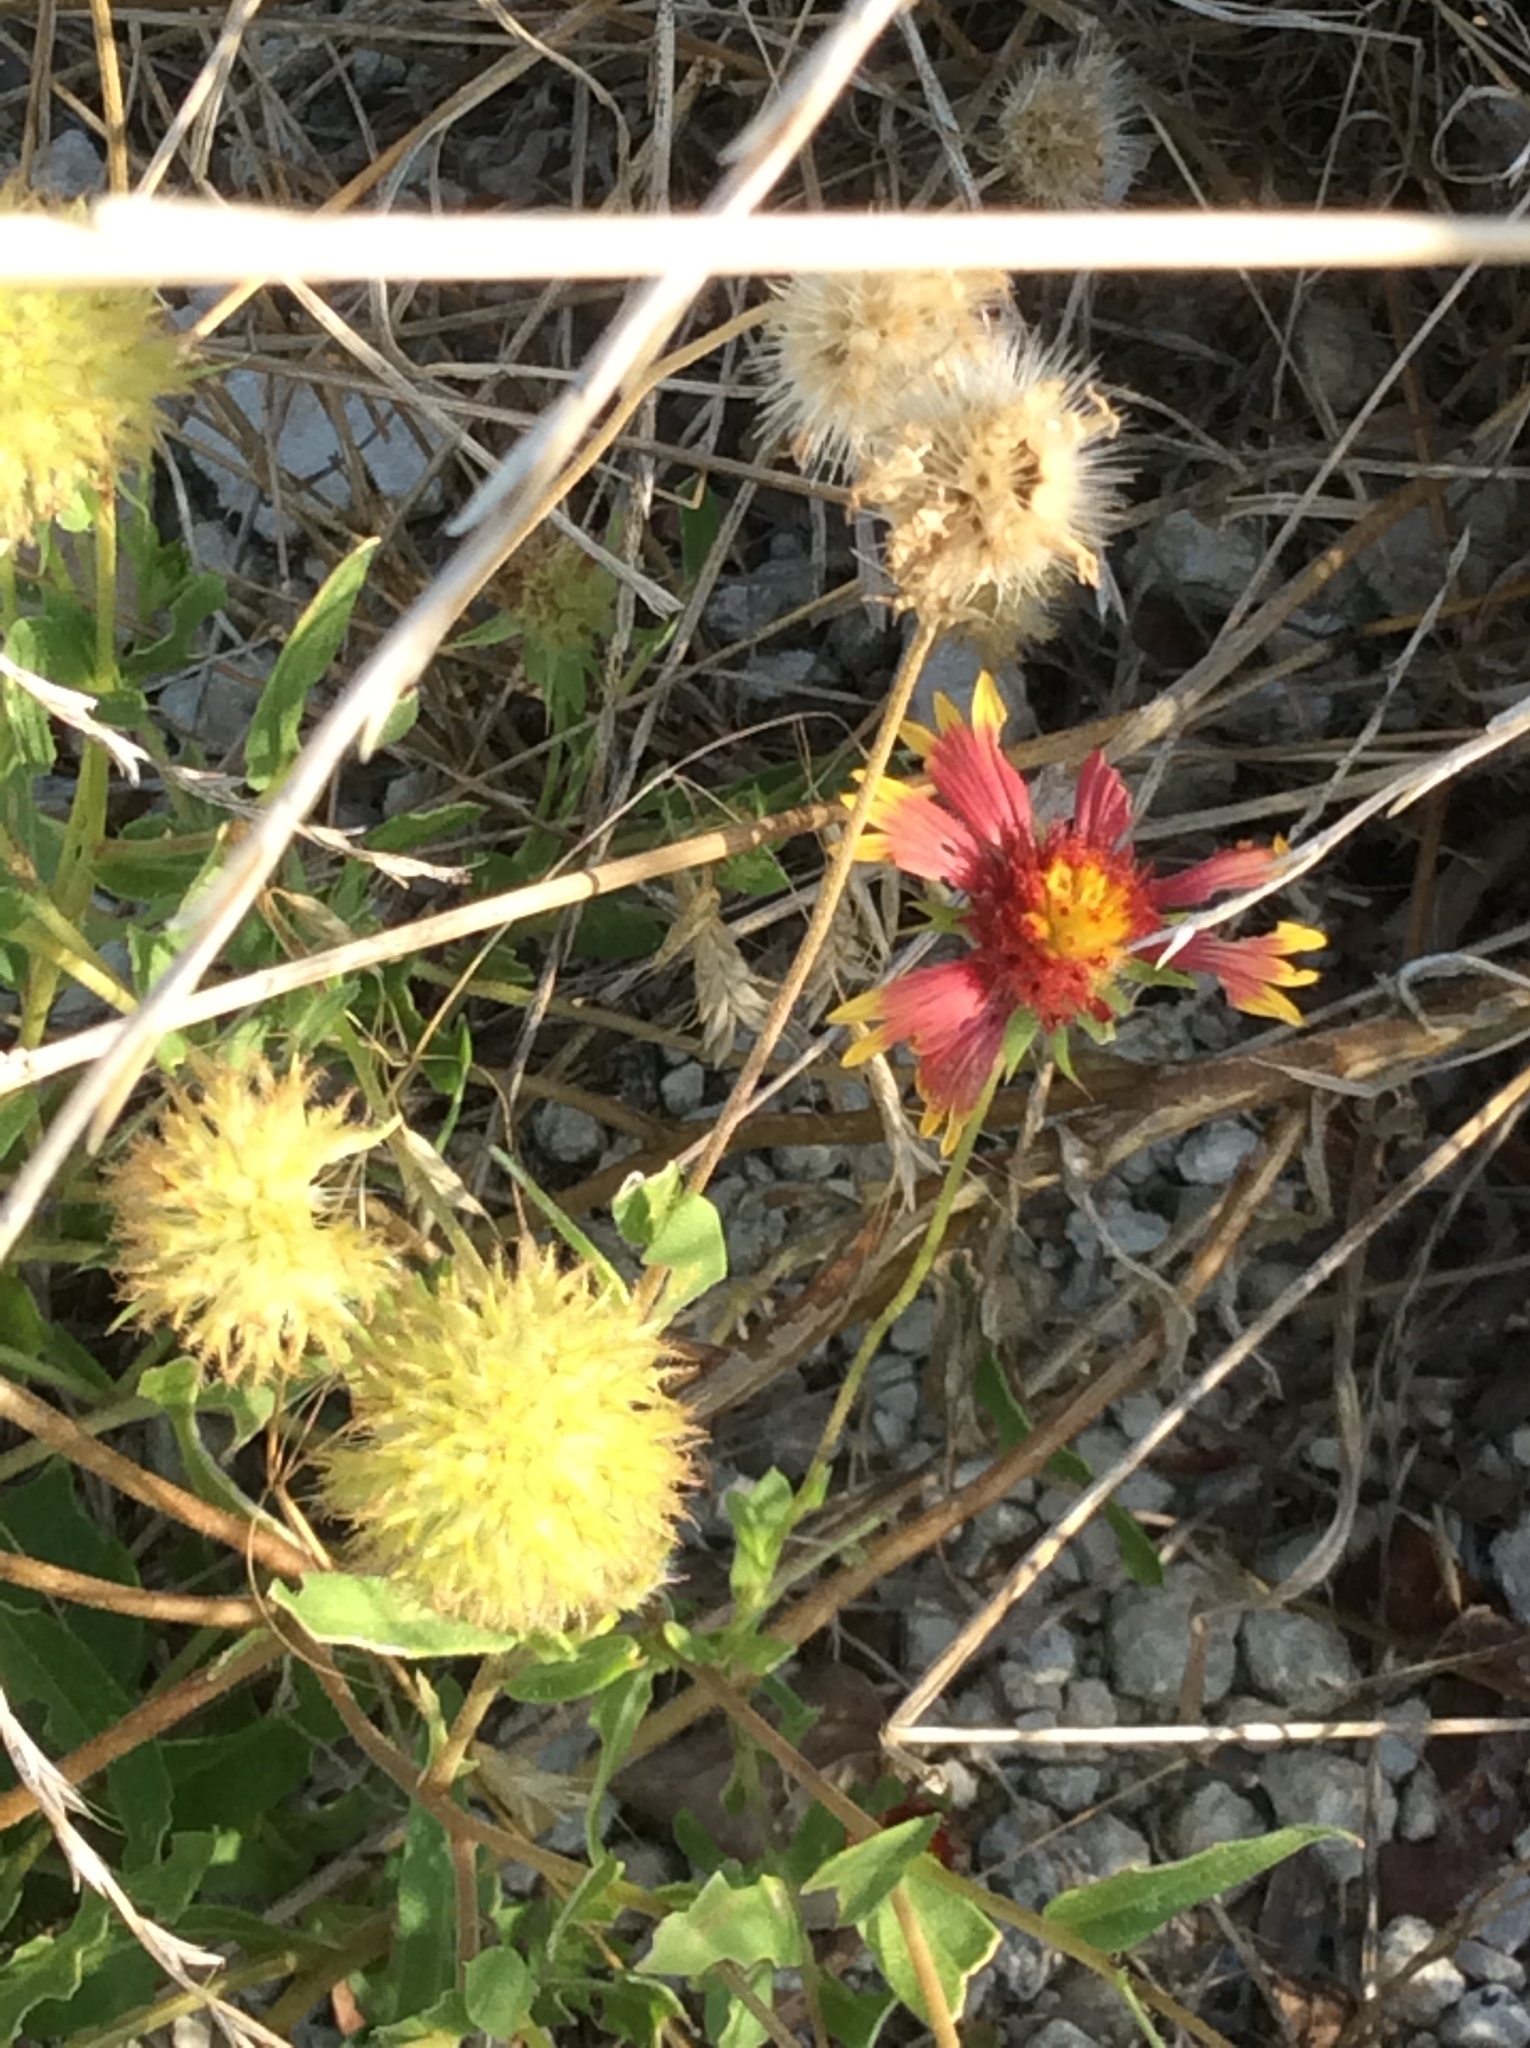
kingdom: Plantae
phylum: Tracheophyta
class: Magnoliopsida
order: Asterales
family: Asteraceae
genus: Gaillardia
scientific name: Gaillardia pulchella
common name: Firewheel
